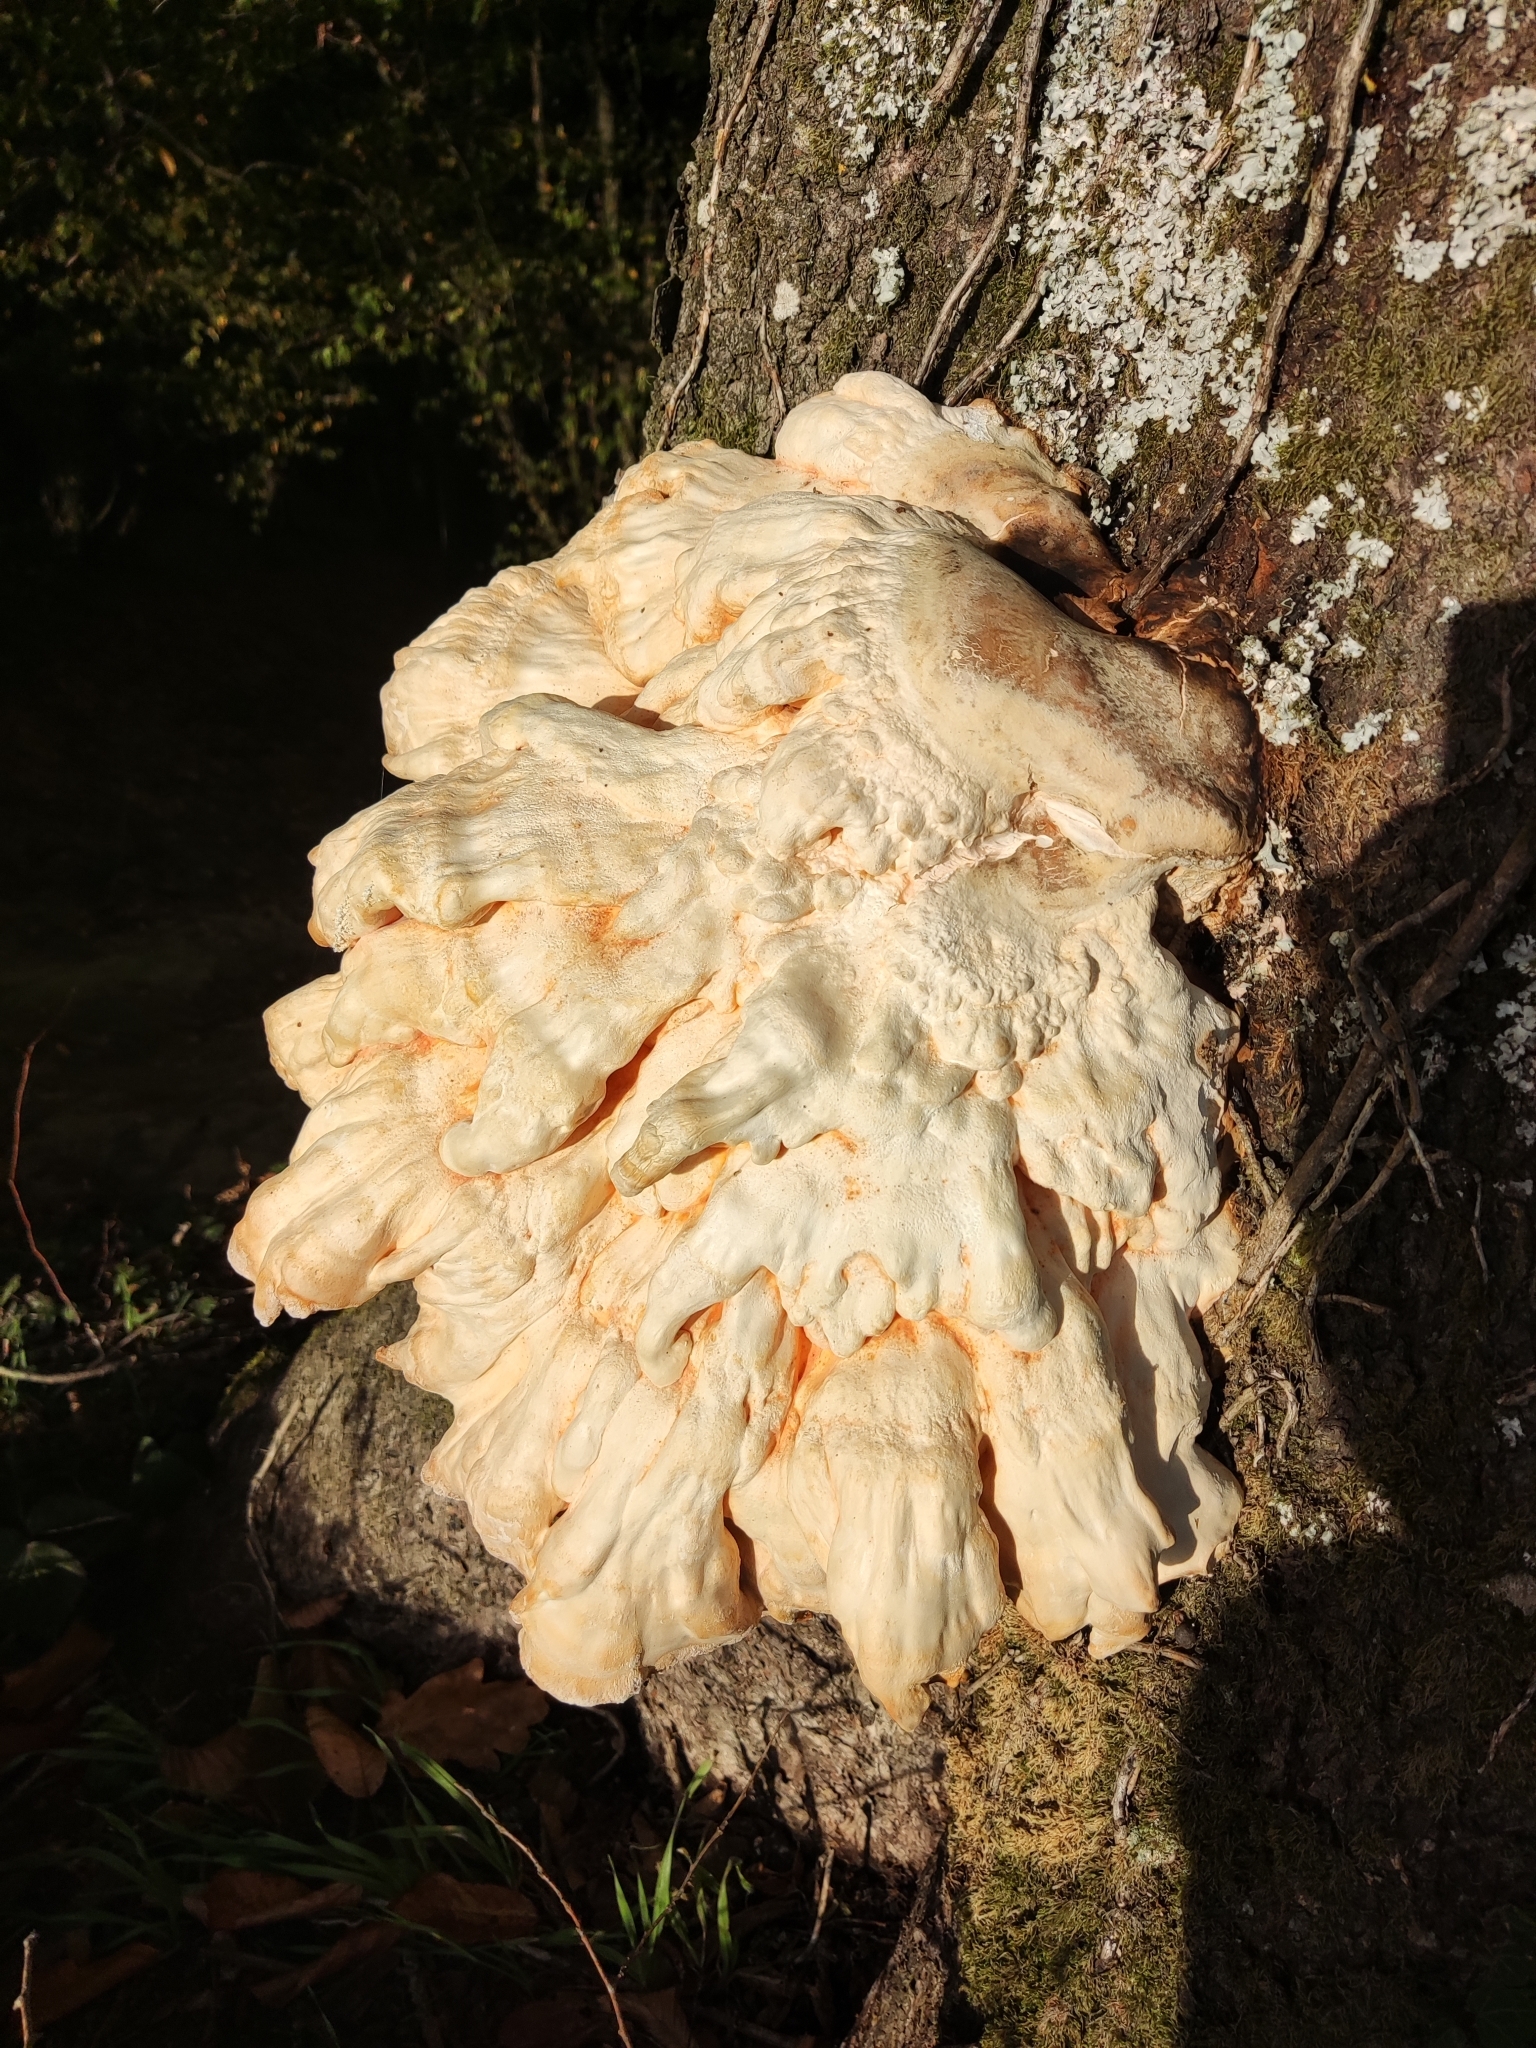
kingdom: Fungi
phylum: Basidiomycota
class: Agaricomycetes
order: Polyporales
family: Laetiporaceae
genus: Laetiporus
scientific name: Laetiporus sulphureus
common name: Chicken of the woods
